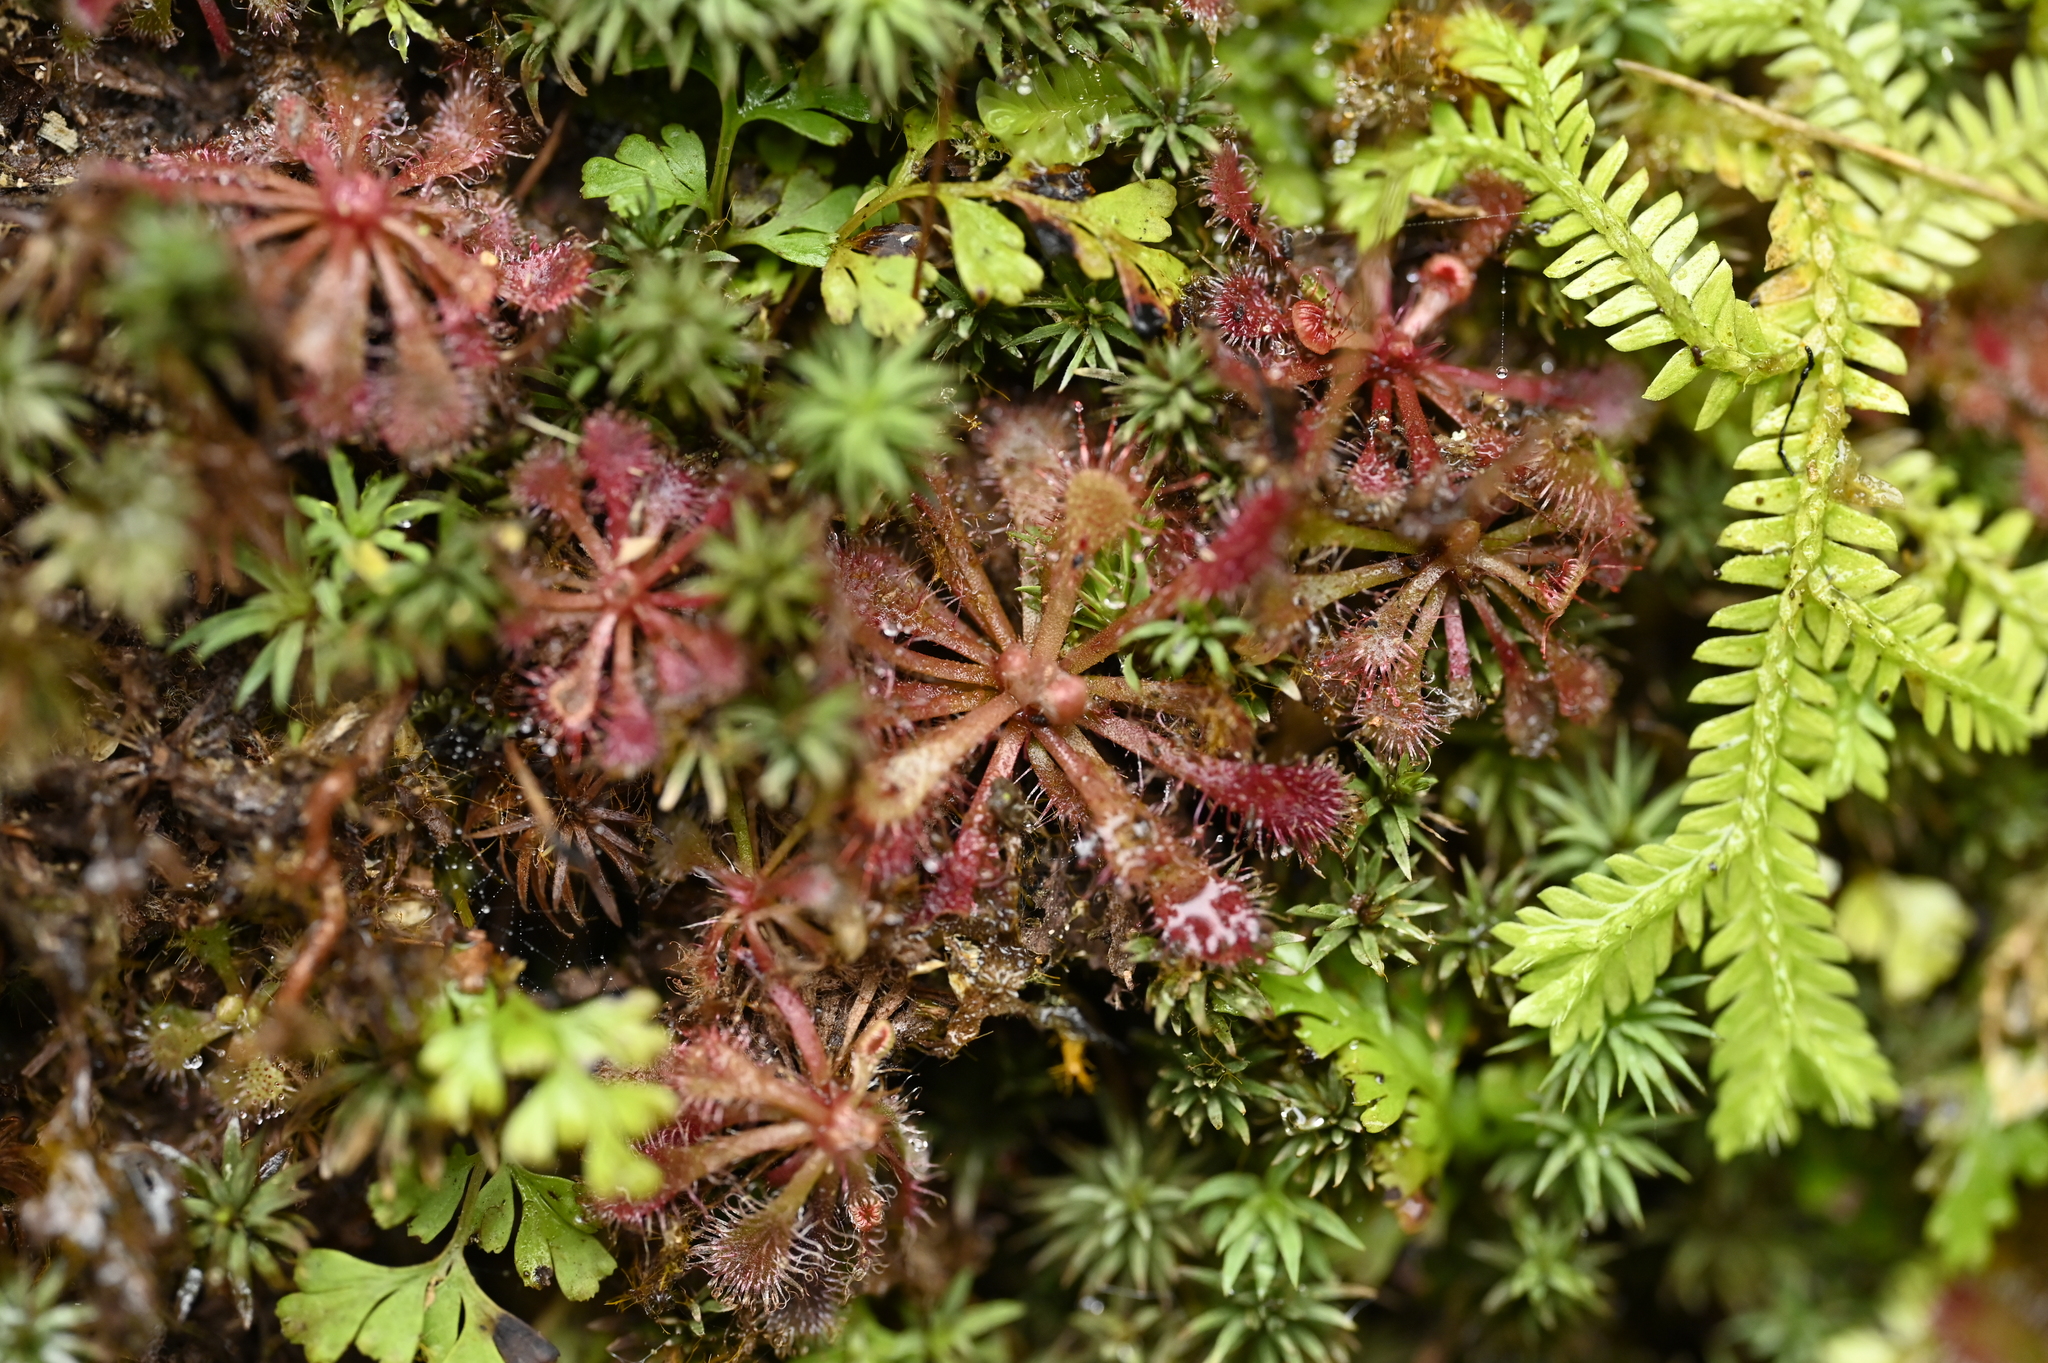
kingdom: Plantae
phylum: Tracheophyta
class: Magnoliopsida
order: Caryophyllales
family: Droseraceae
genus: Drosera
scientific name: Drosera spatulata
